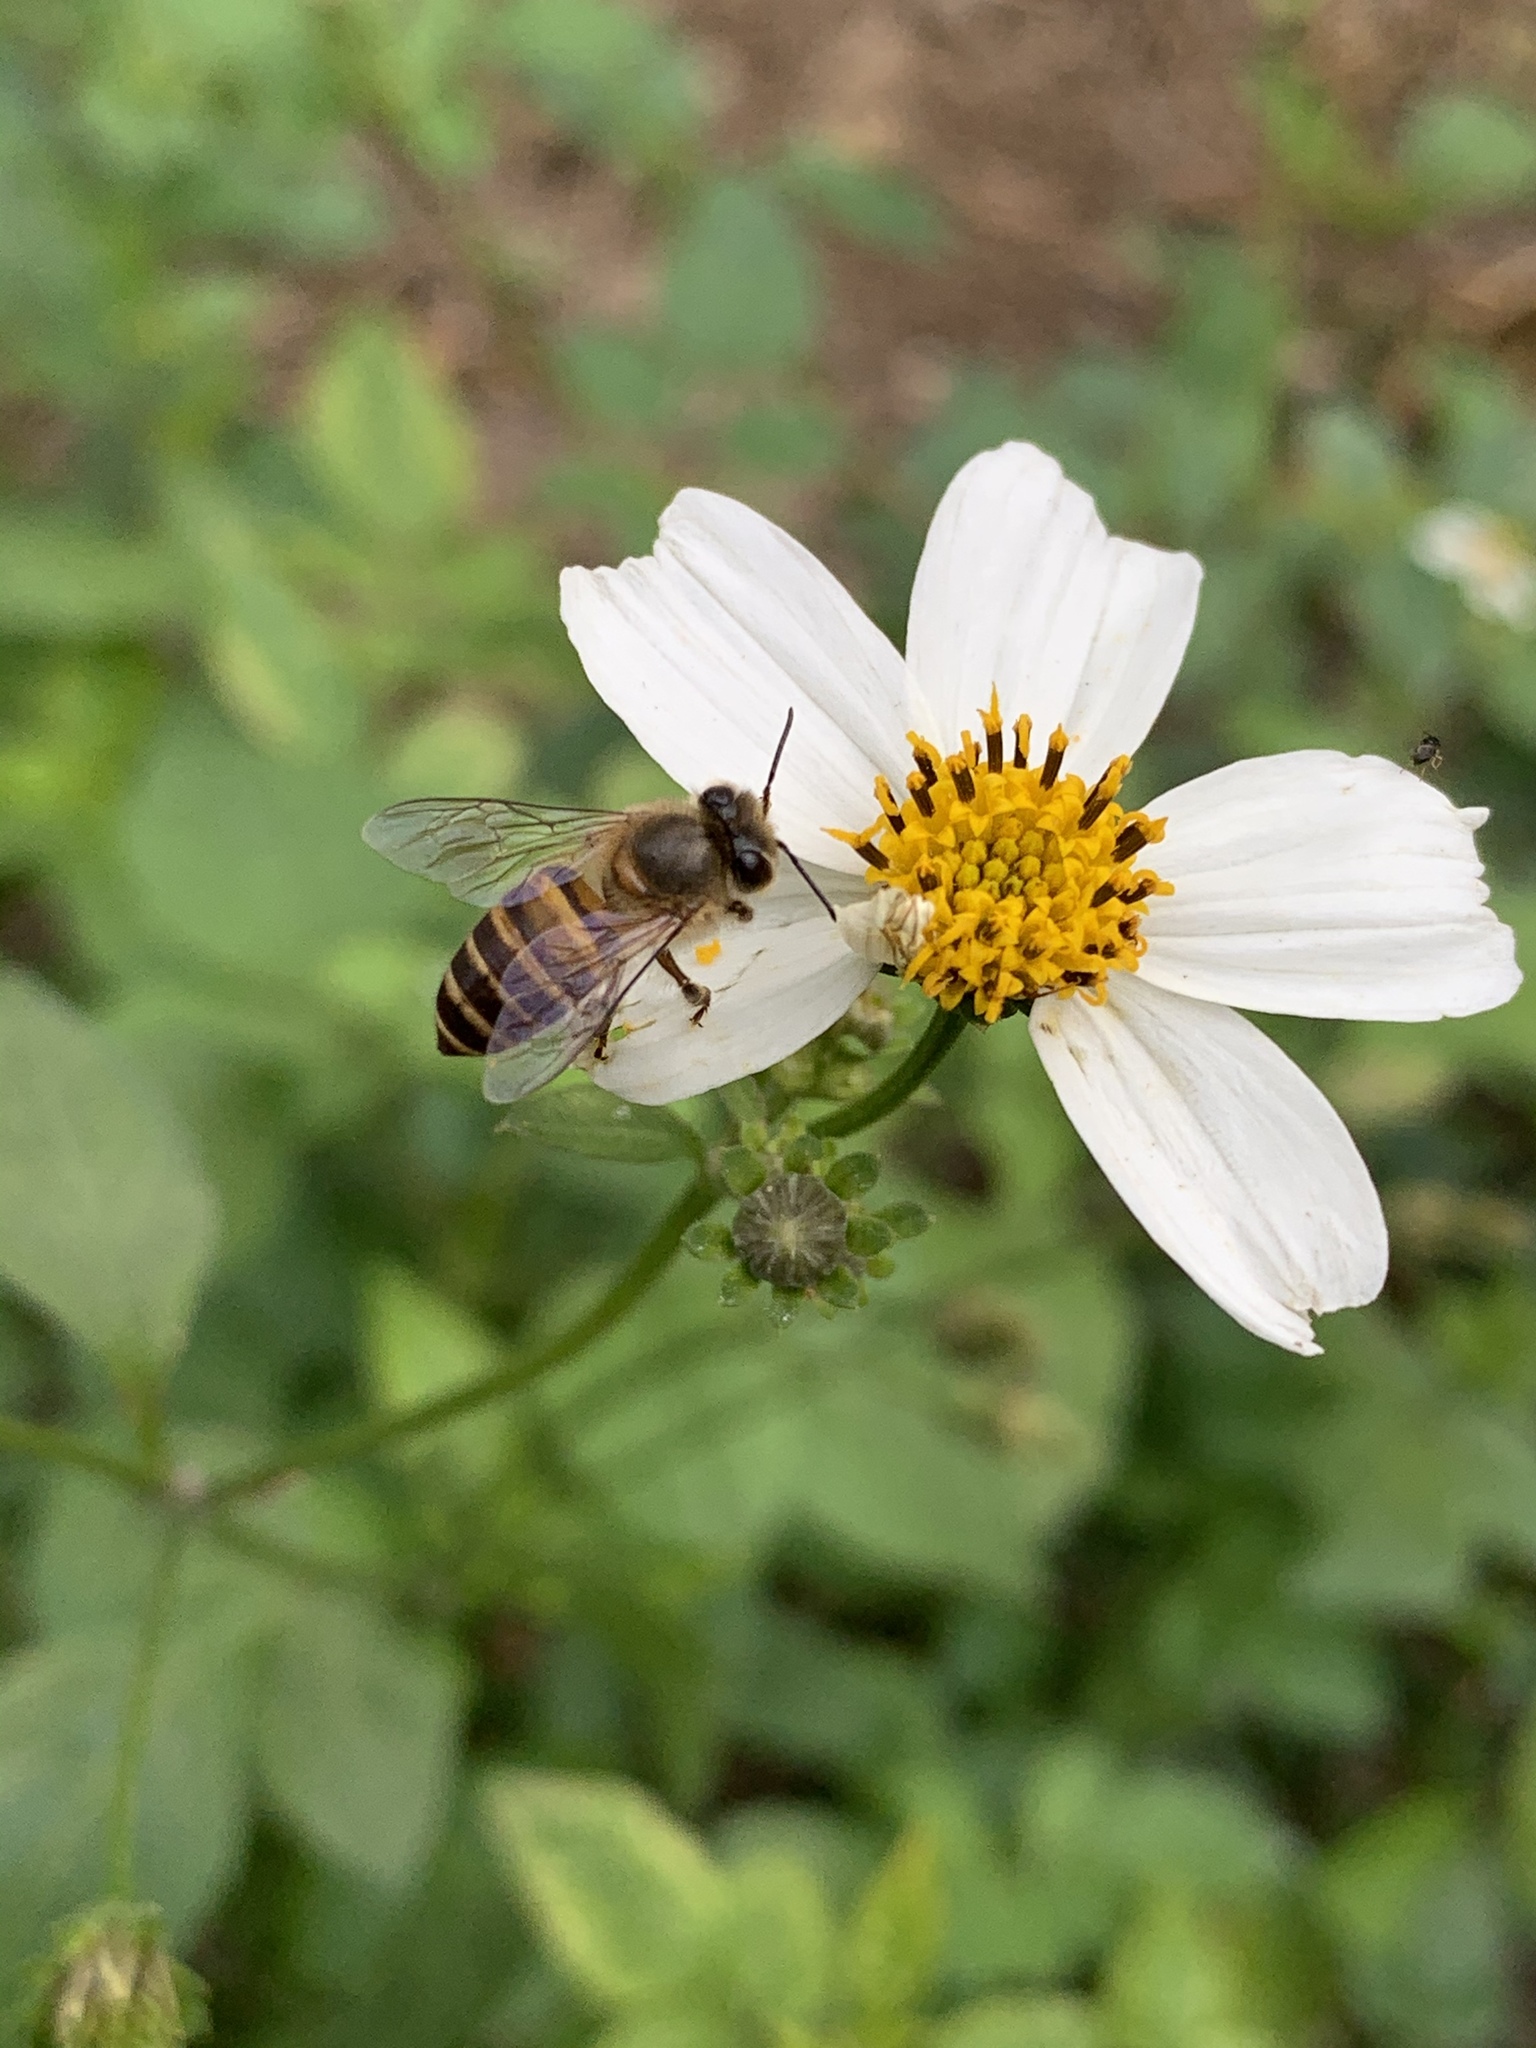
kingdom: Animalia
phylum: Arthropoda
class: Insecta
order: Hymenoptera
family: Apidae
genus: Apis
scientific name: Apis cerana
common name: Honey bee
